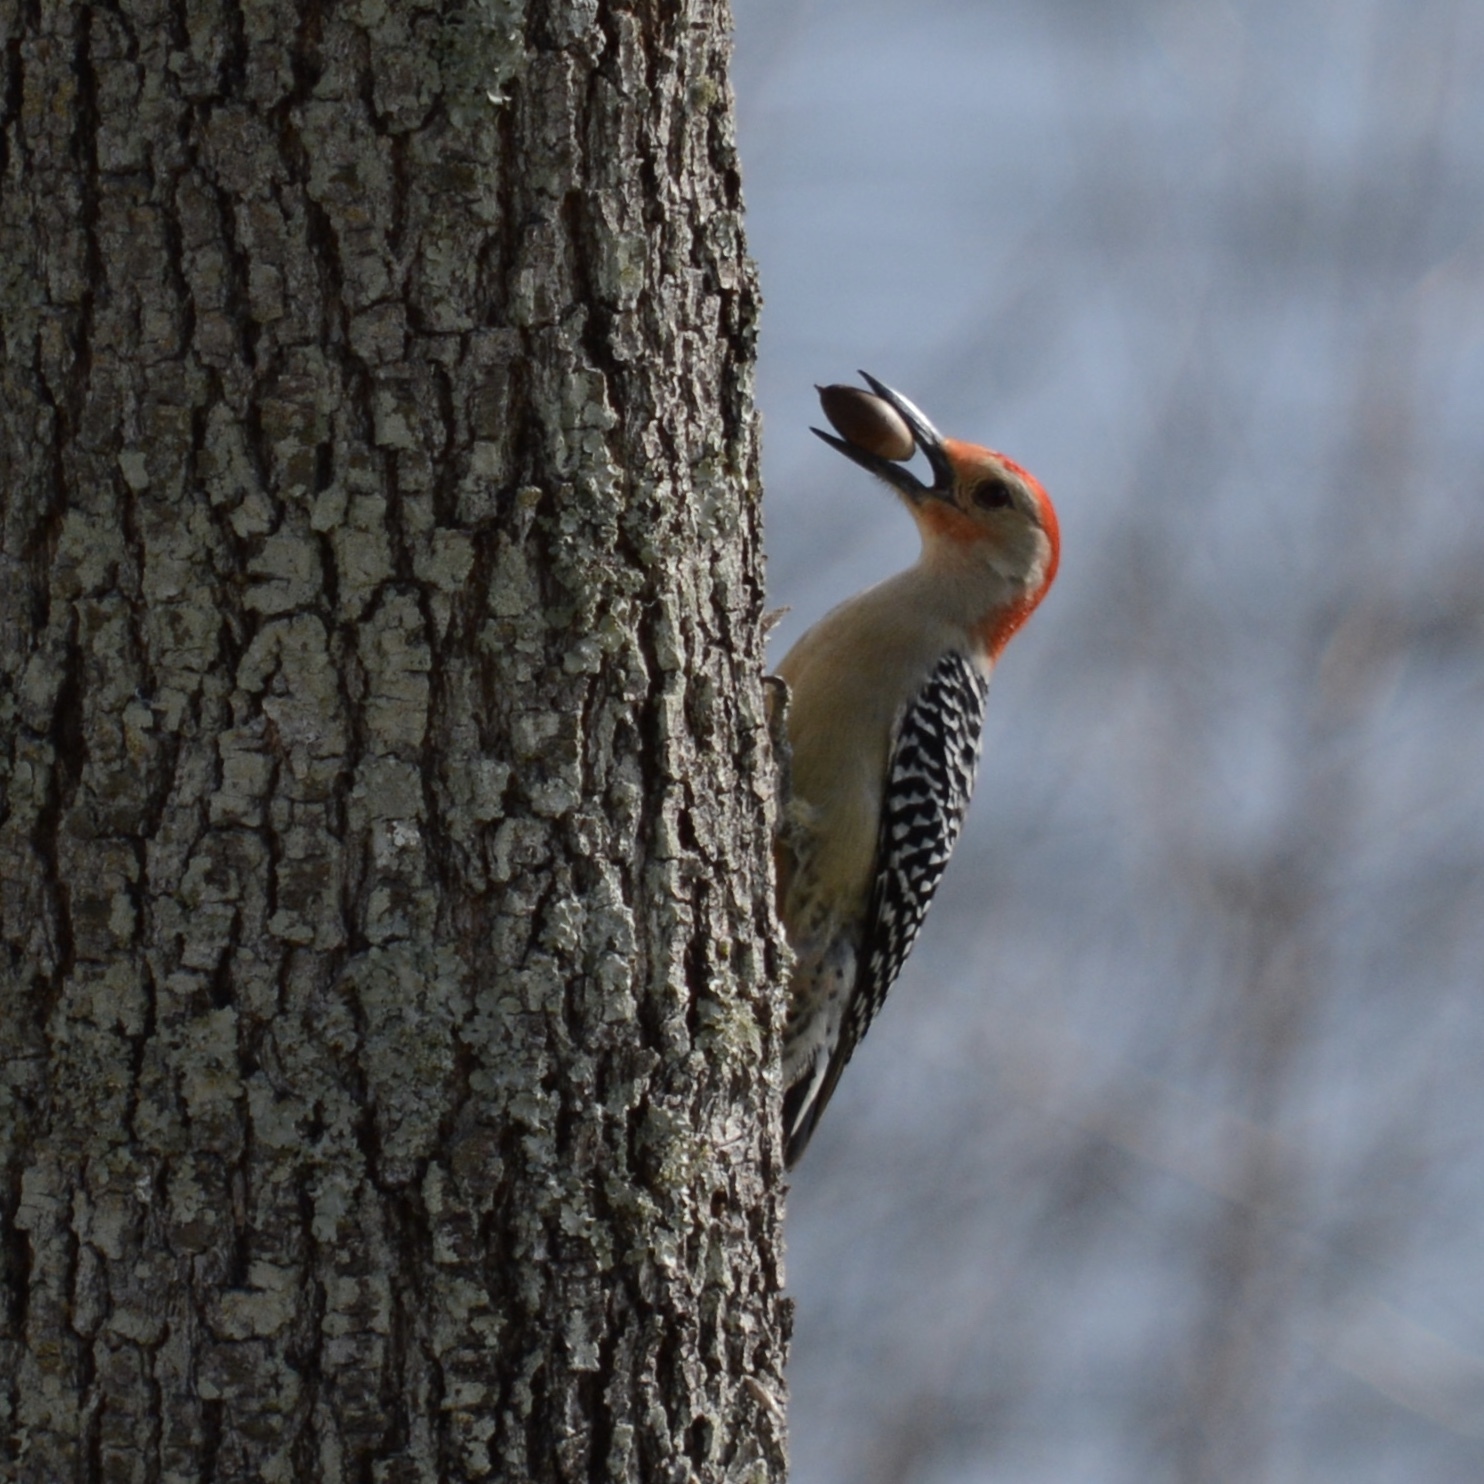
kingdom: Animalia
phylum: Chordata
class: Aves
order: Piciformes
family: Picidae
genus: Melanerpes
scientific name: Melanerpes carolinus
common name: Red-bellied woodpecker
